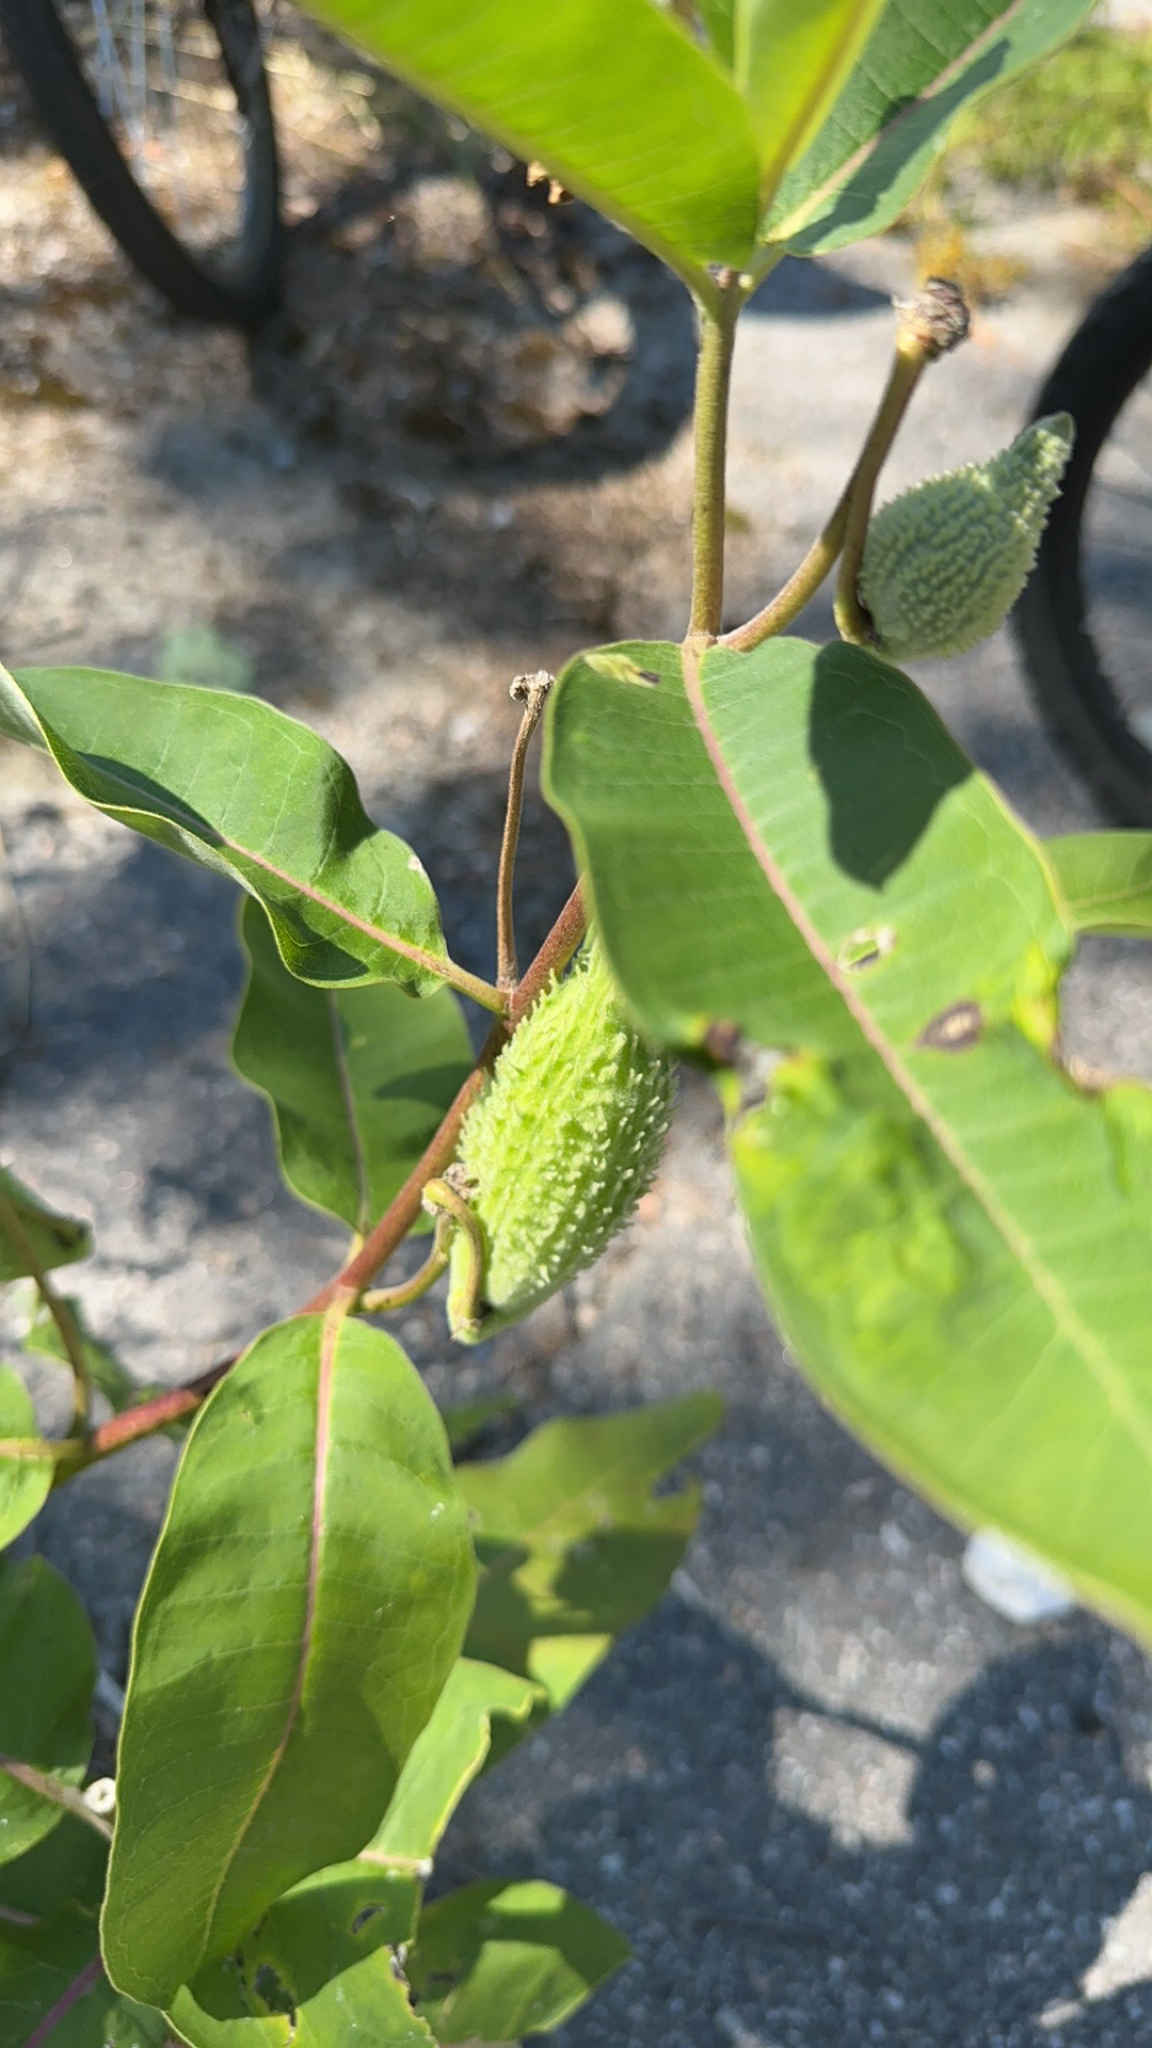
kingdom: Plantae
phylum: Tracheophyta
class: Magnoliopsida
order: Gentianales
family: Apocynaceae
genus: Asclepias
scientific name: Asclepias syriaca
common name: Common milkweed
